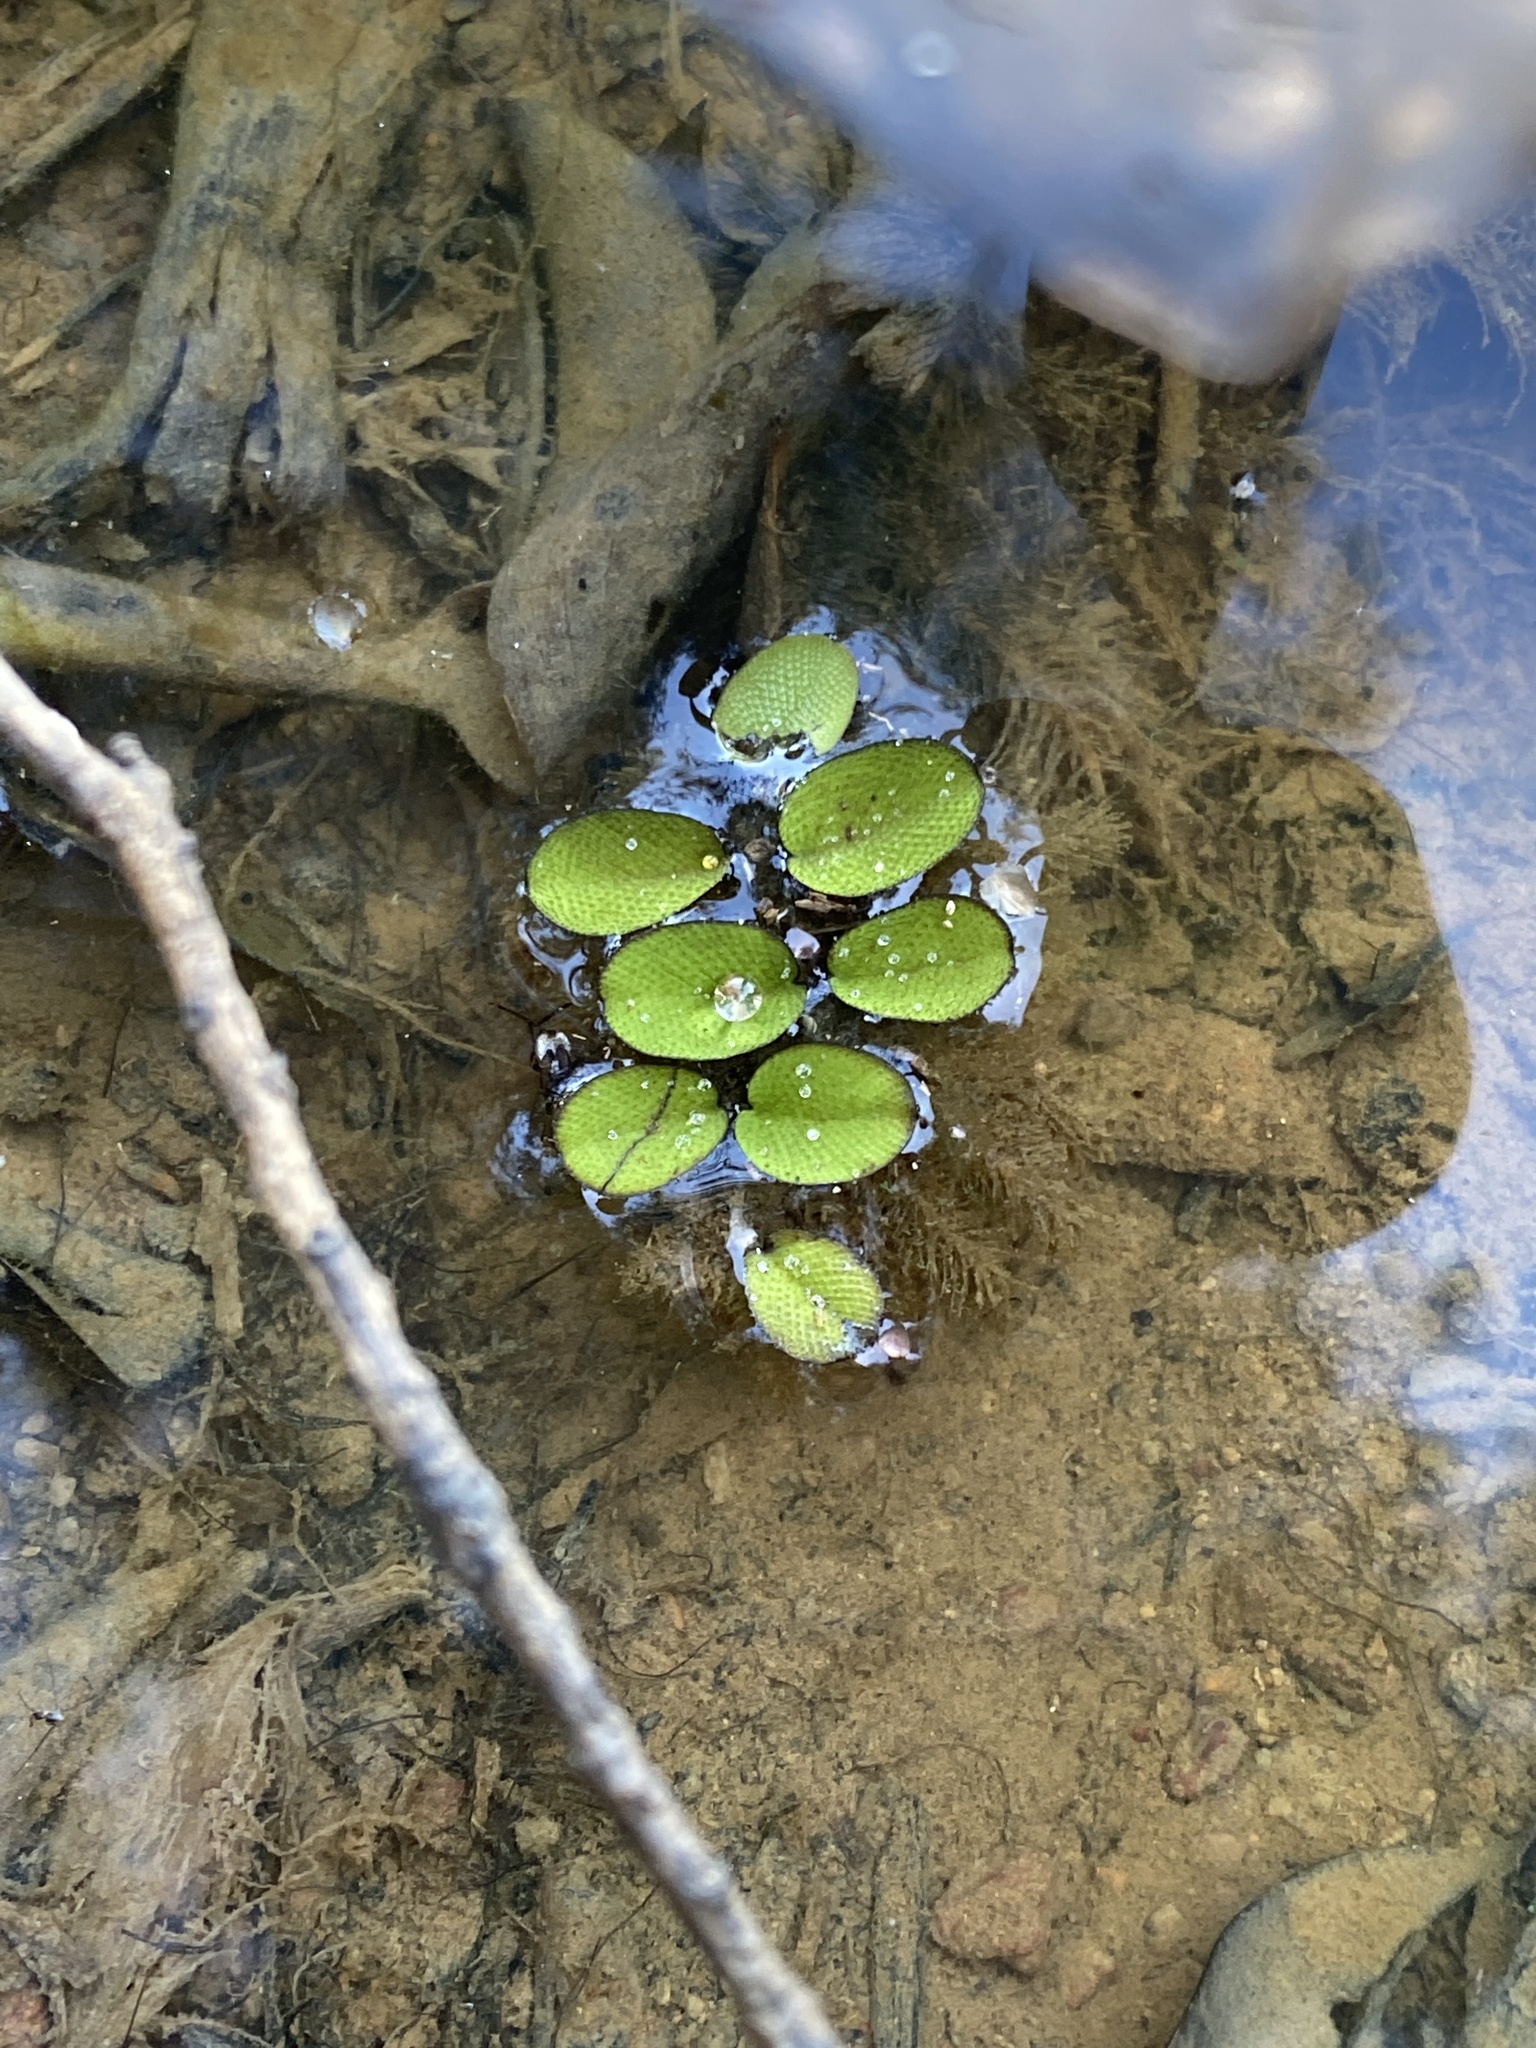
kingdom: Plantae
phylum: Tracheophyta
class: Polypodiopsida
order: Salviniales
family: Salviniaceae
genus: Salvinia
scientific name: Salvinia molesta
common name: Kariba weed
